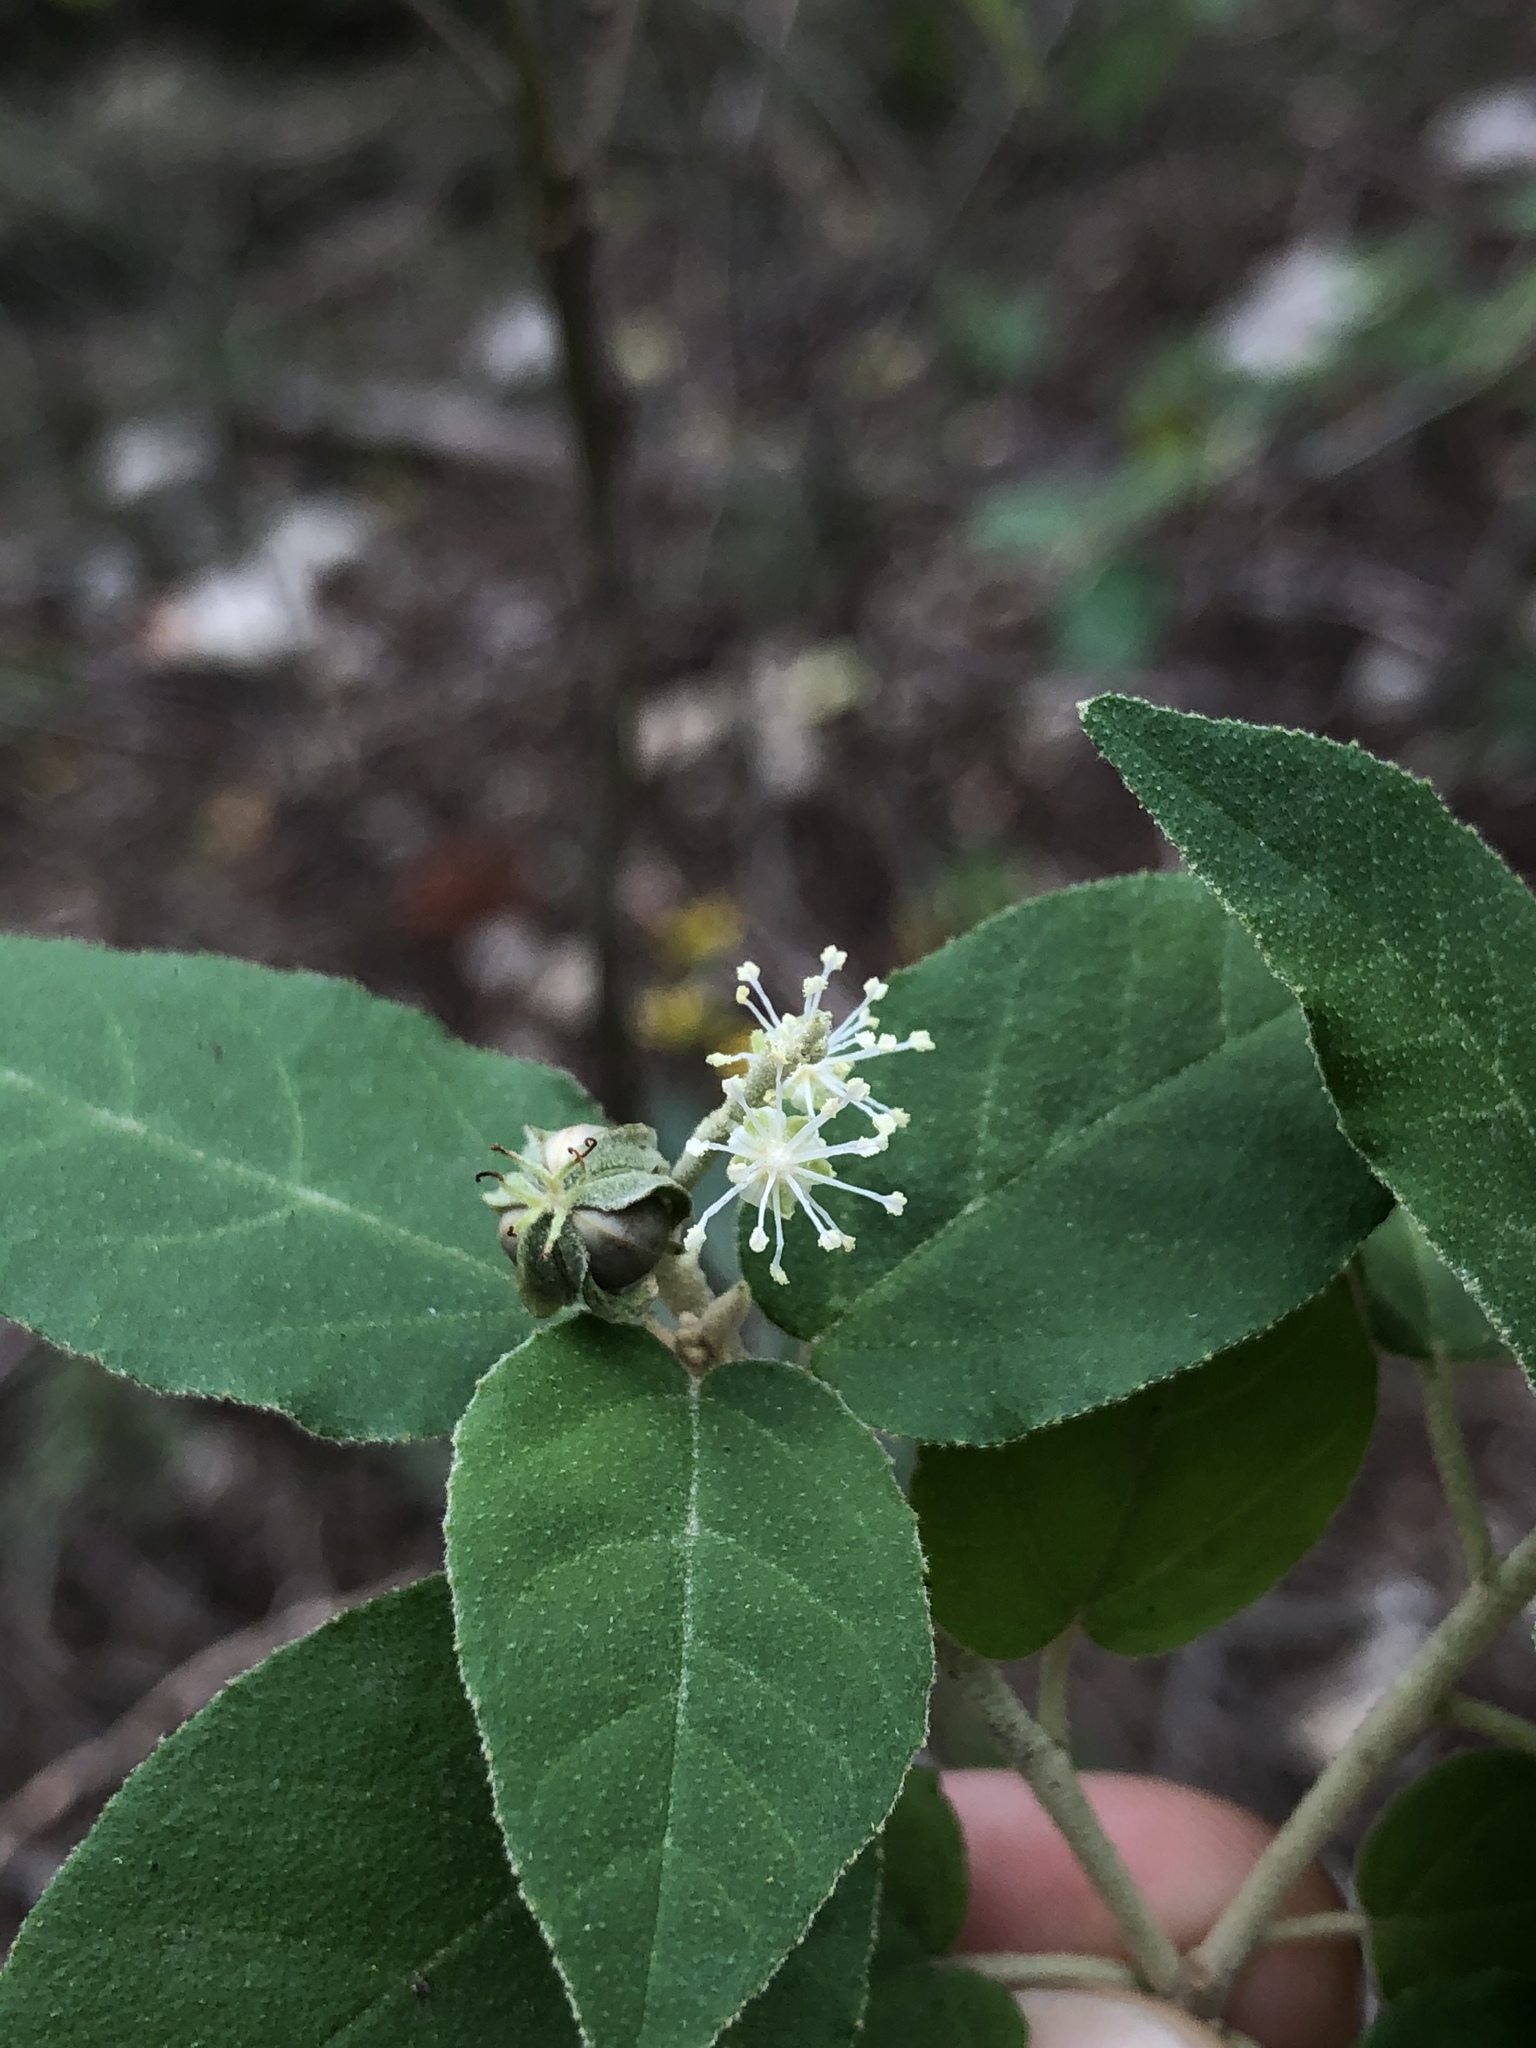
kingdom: Plantae
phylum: Tracheophyta
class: Magnoliopsida
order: Malpighiales
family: Euphorbiaceae
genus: Croton
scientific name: Croton fruticulosus
